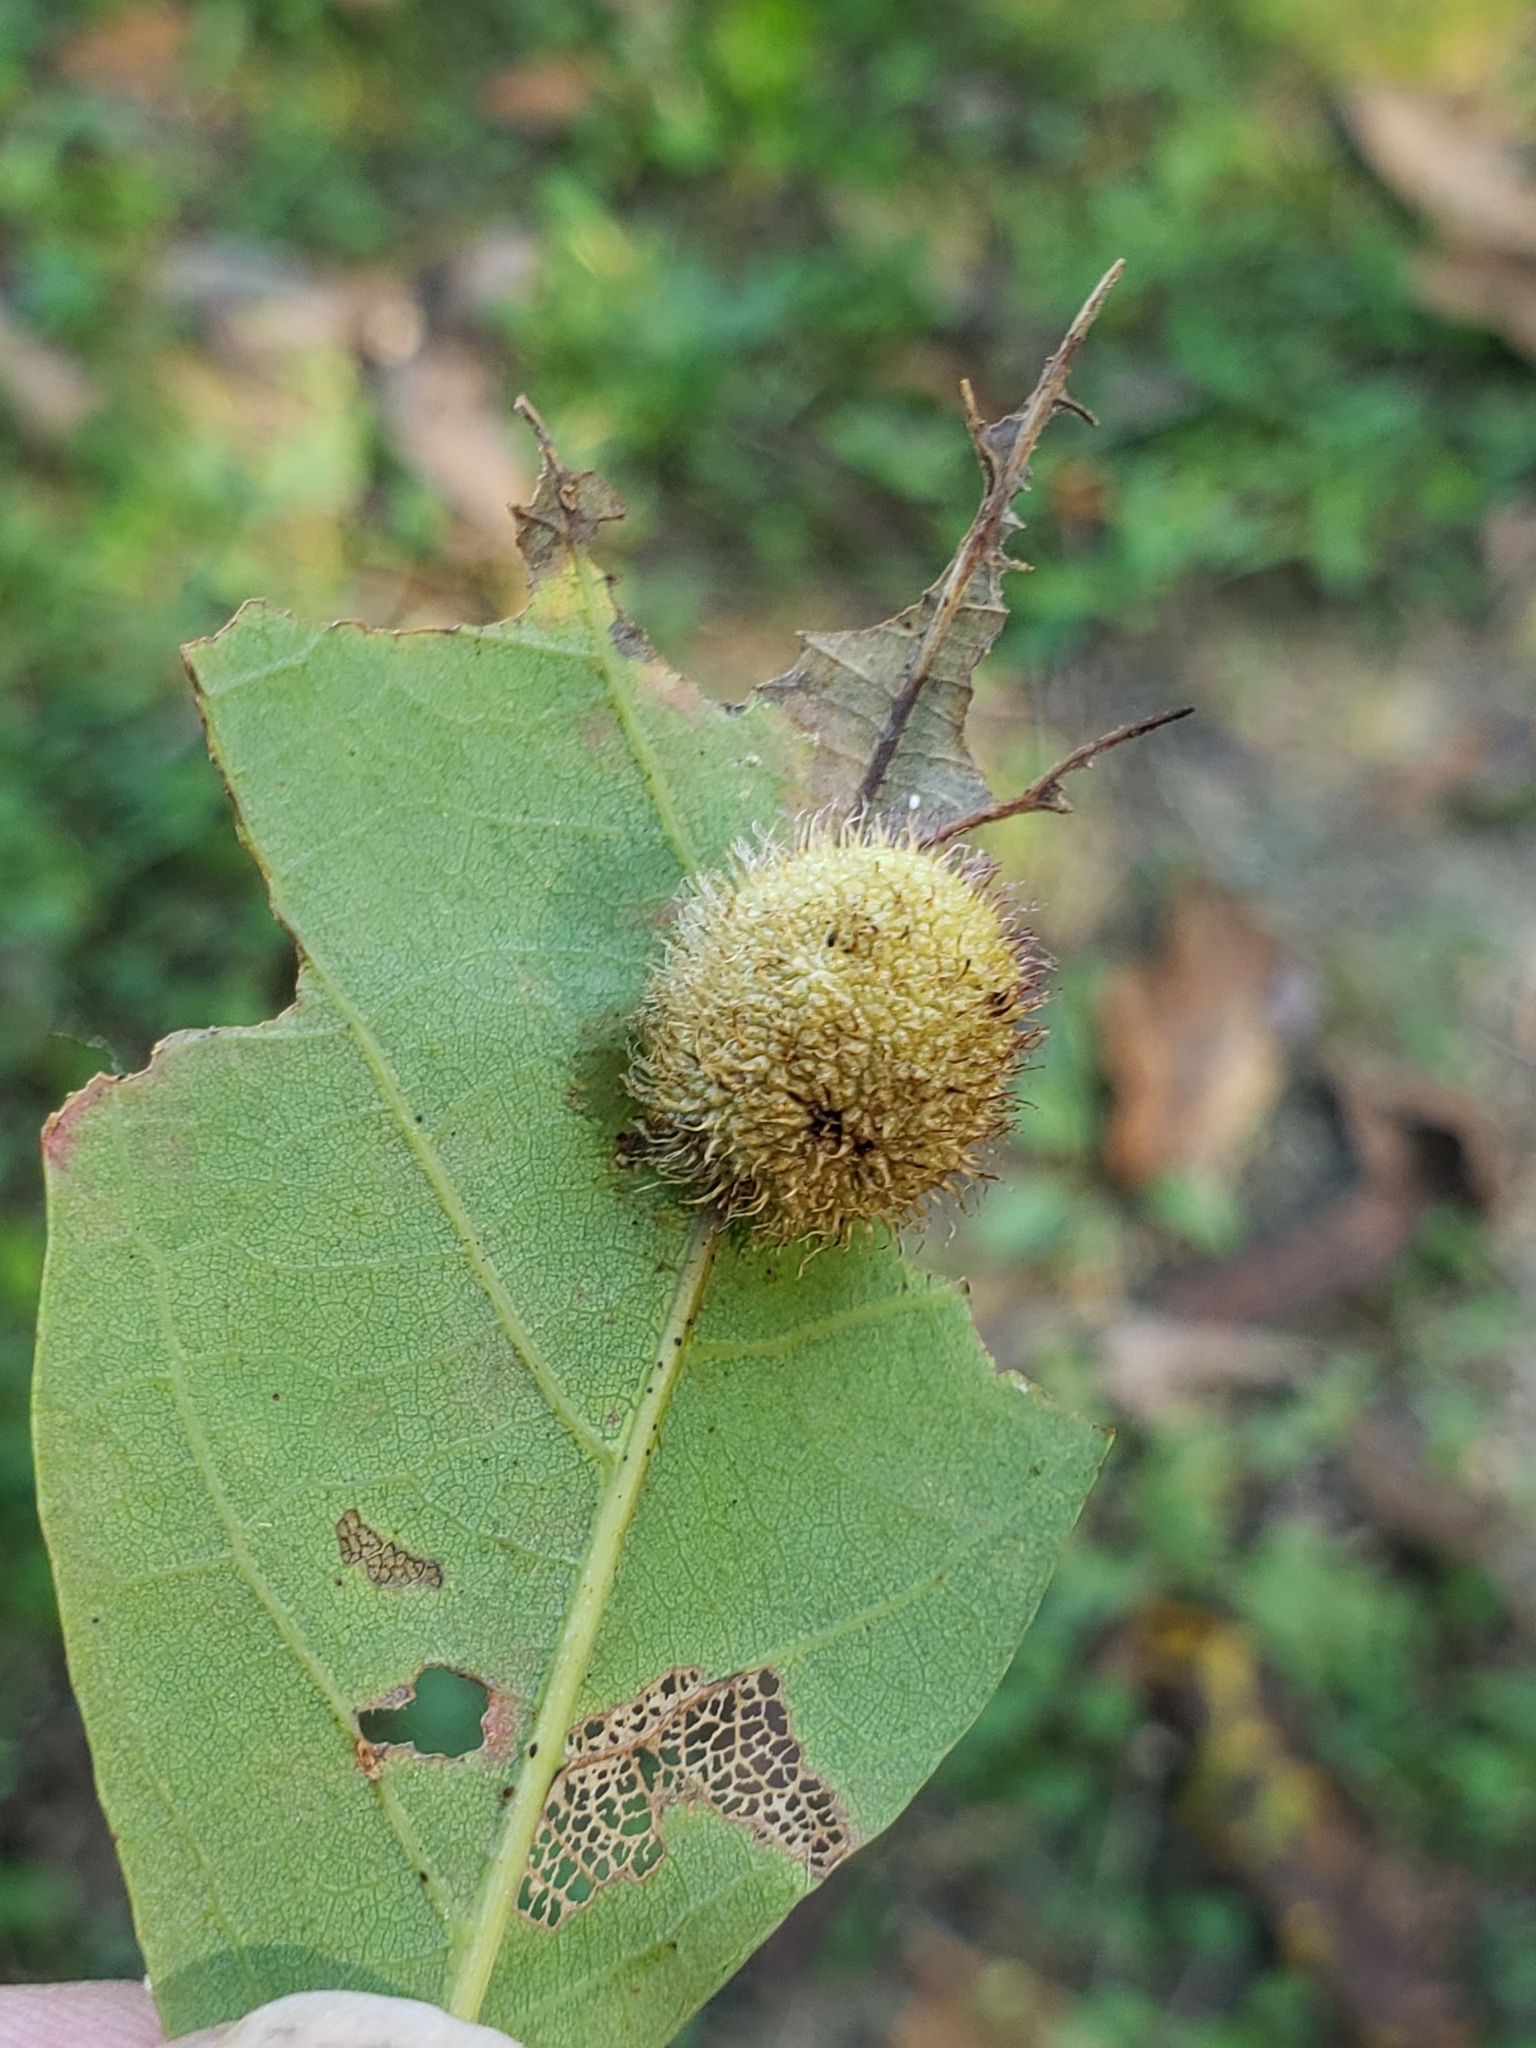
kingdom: Animalia
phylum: Arthropoda
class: Insecta
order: Hymenoptera
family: Cynipidae
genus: Acraspis
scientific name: Acraspis erinacei
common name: Hedgehog gall wasp
